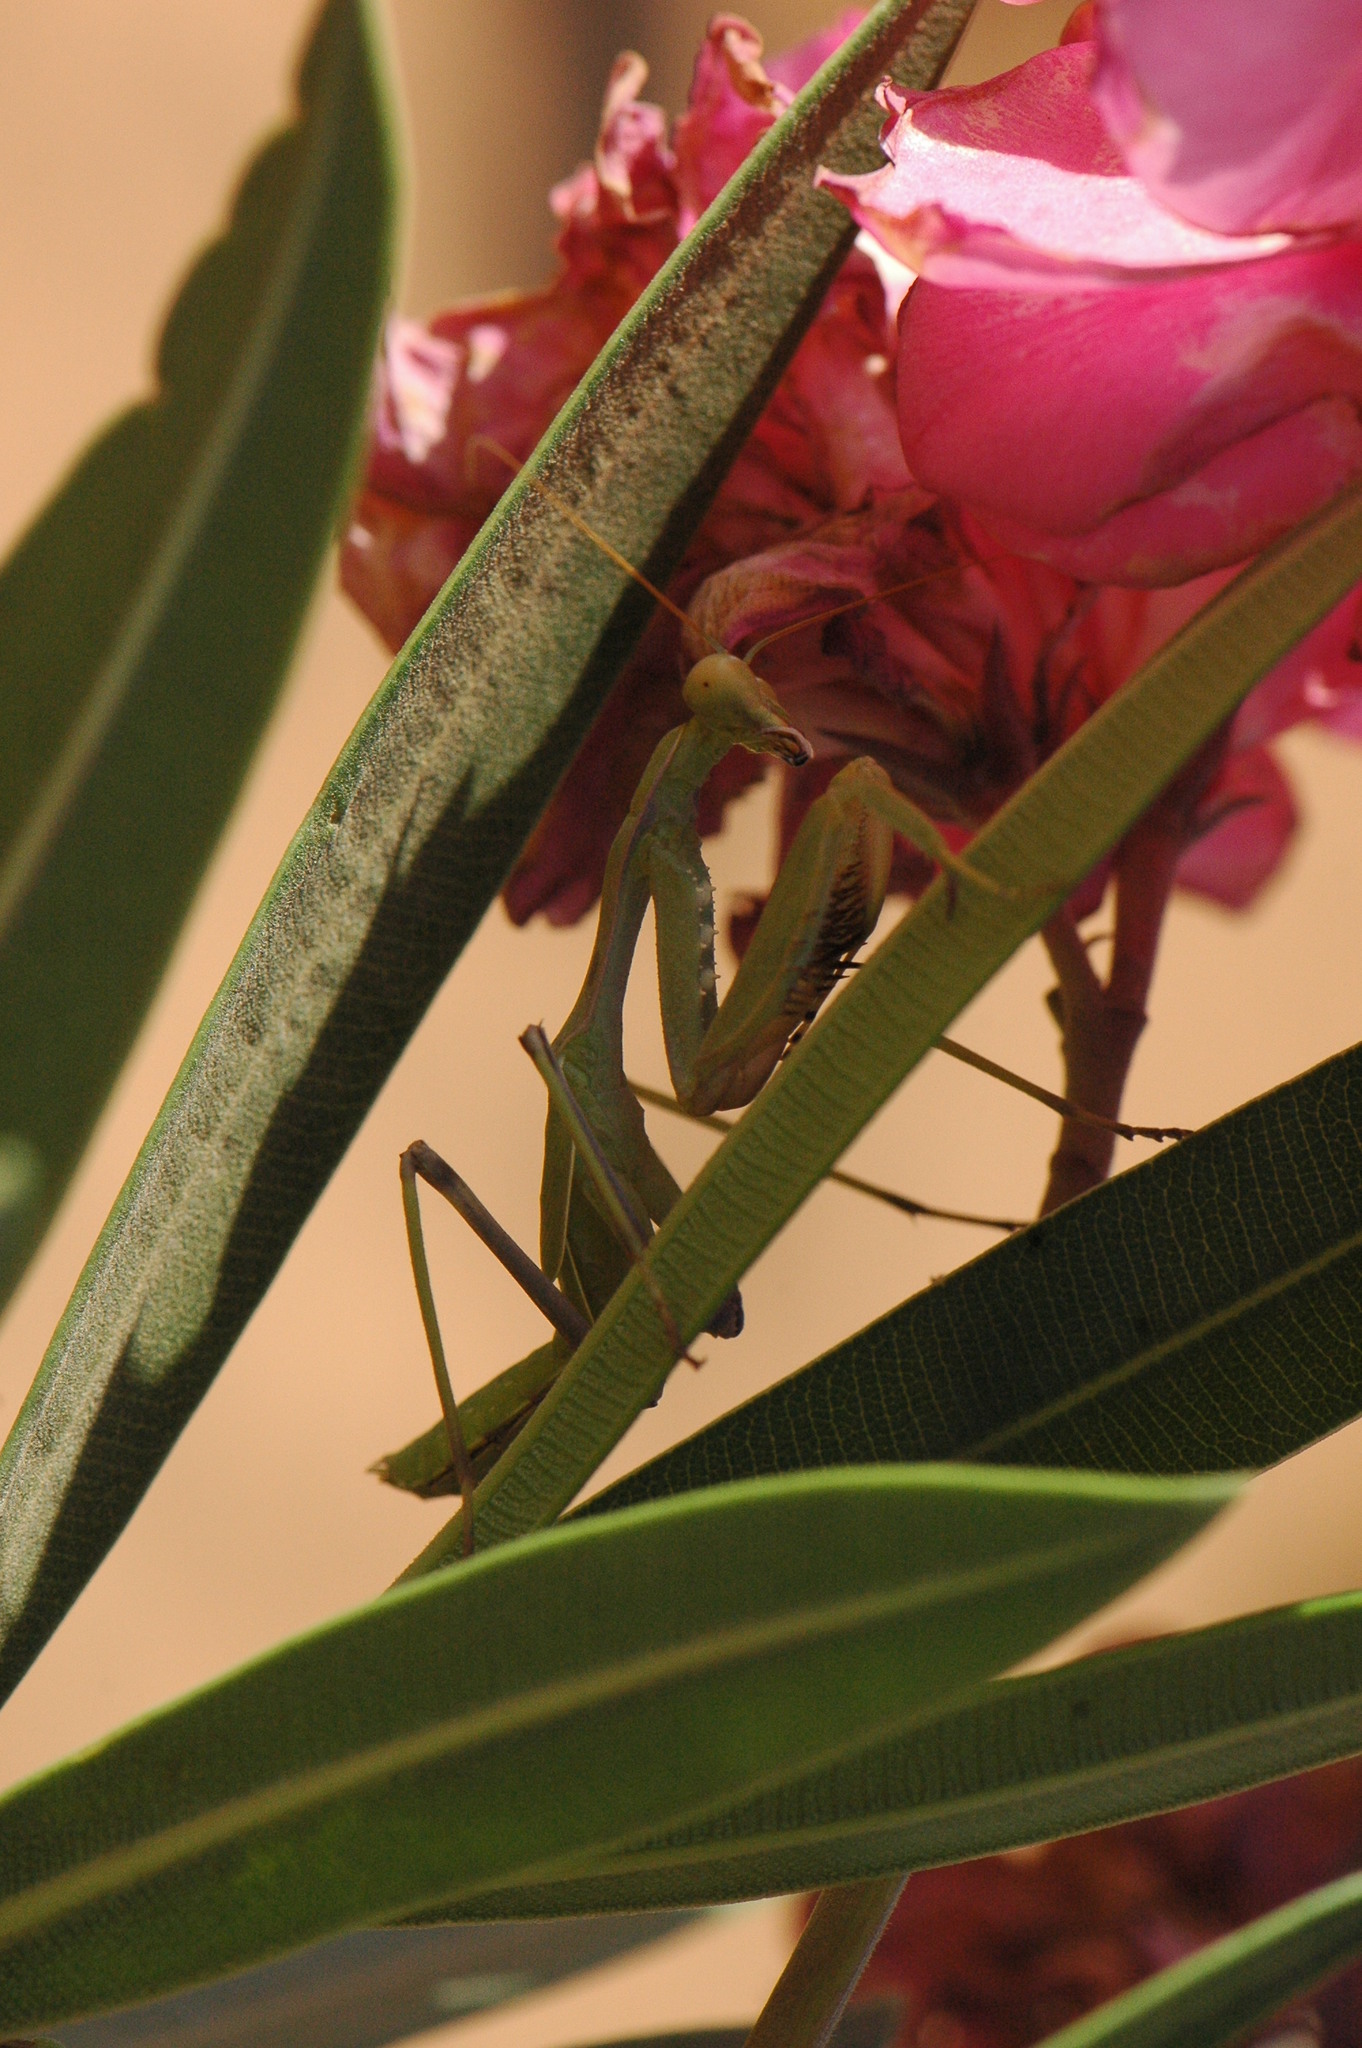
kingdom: Animalia
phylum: Arthropoda
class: Insecta
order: Mantodea
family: Mantidae
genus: Sphodromantis
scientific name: Sphodromantis viridis
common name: Giant african mantis
